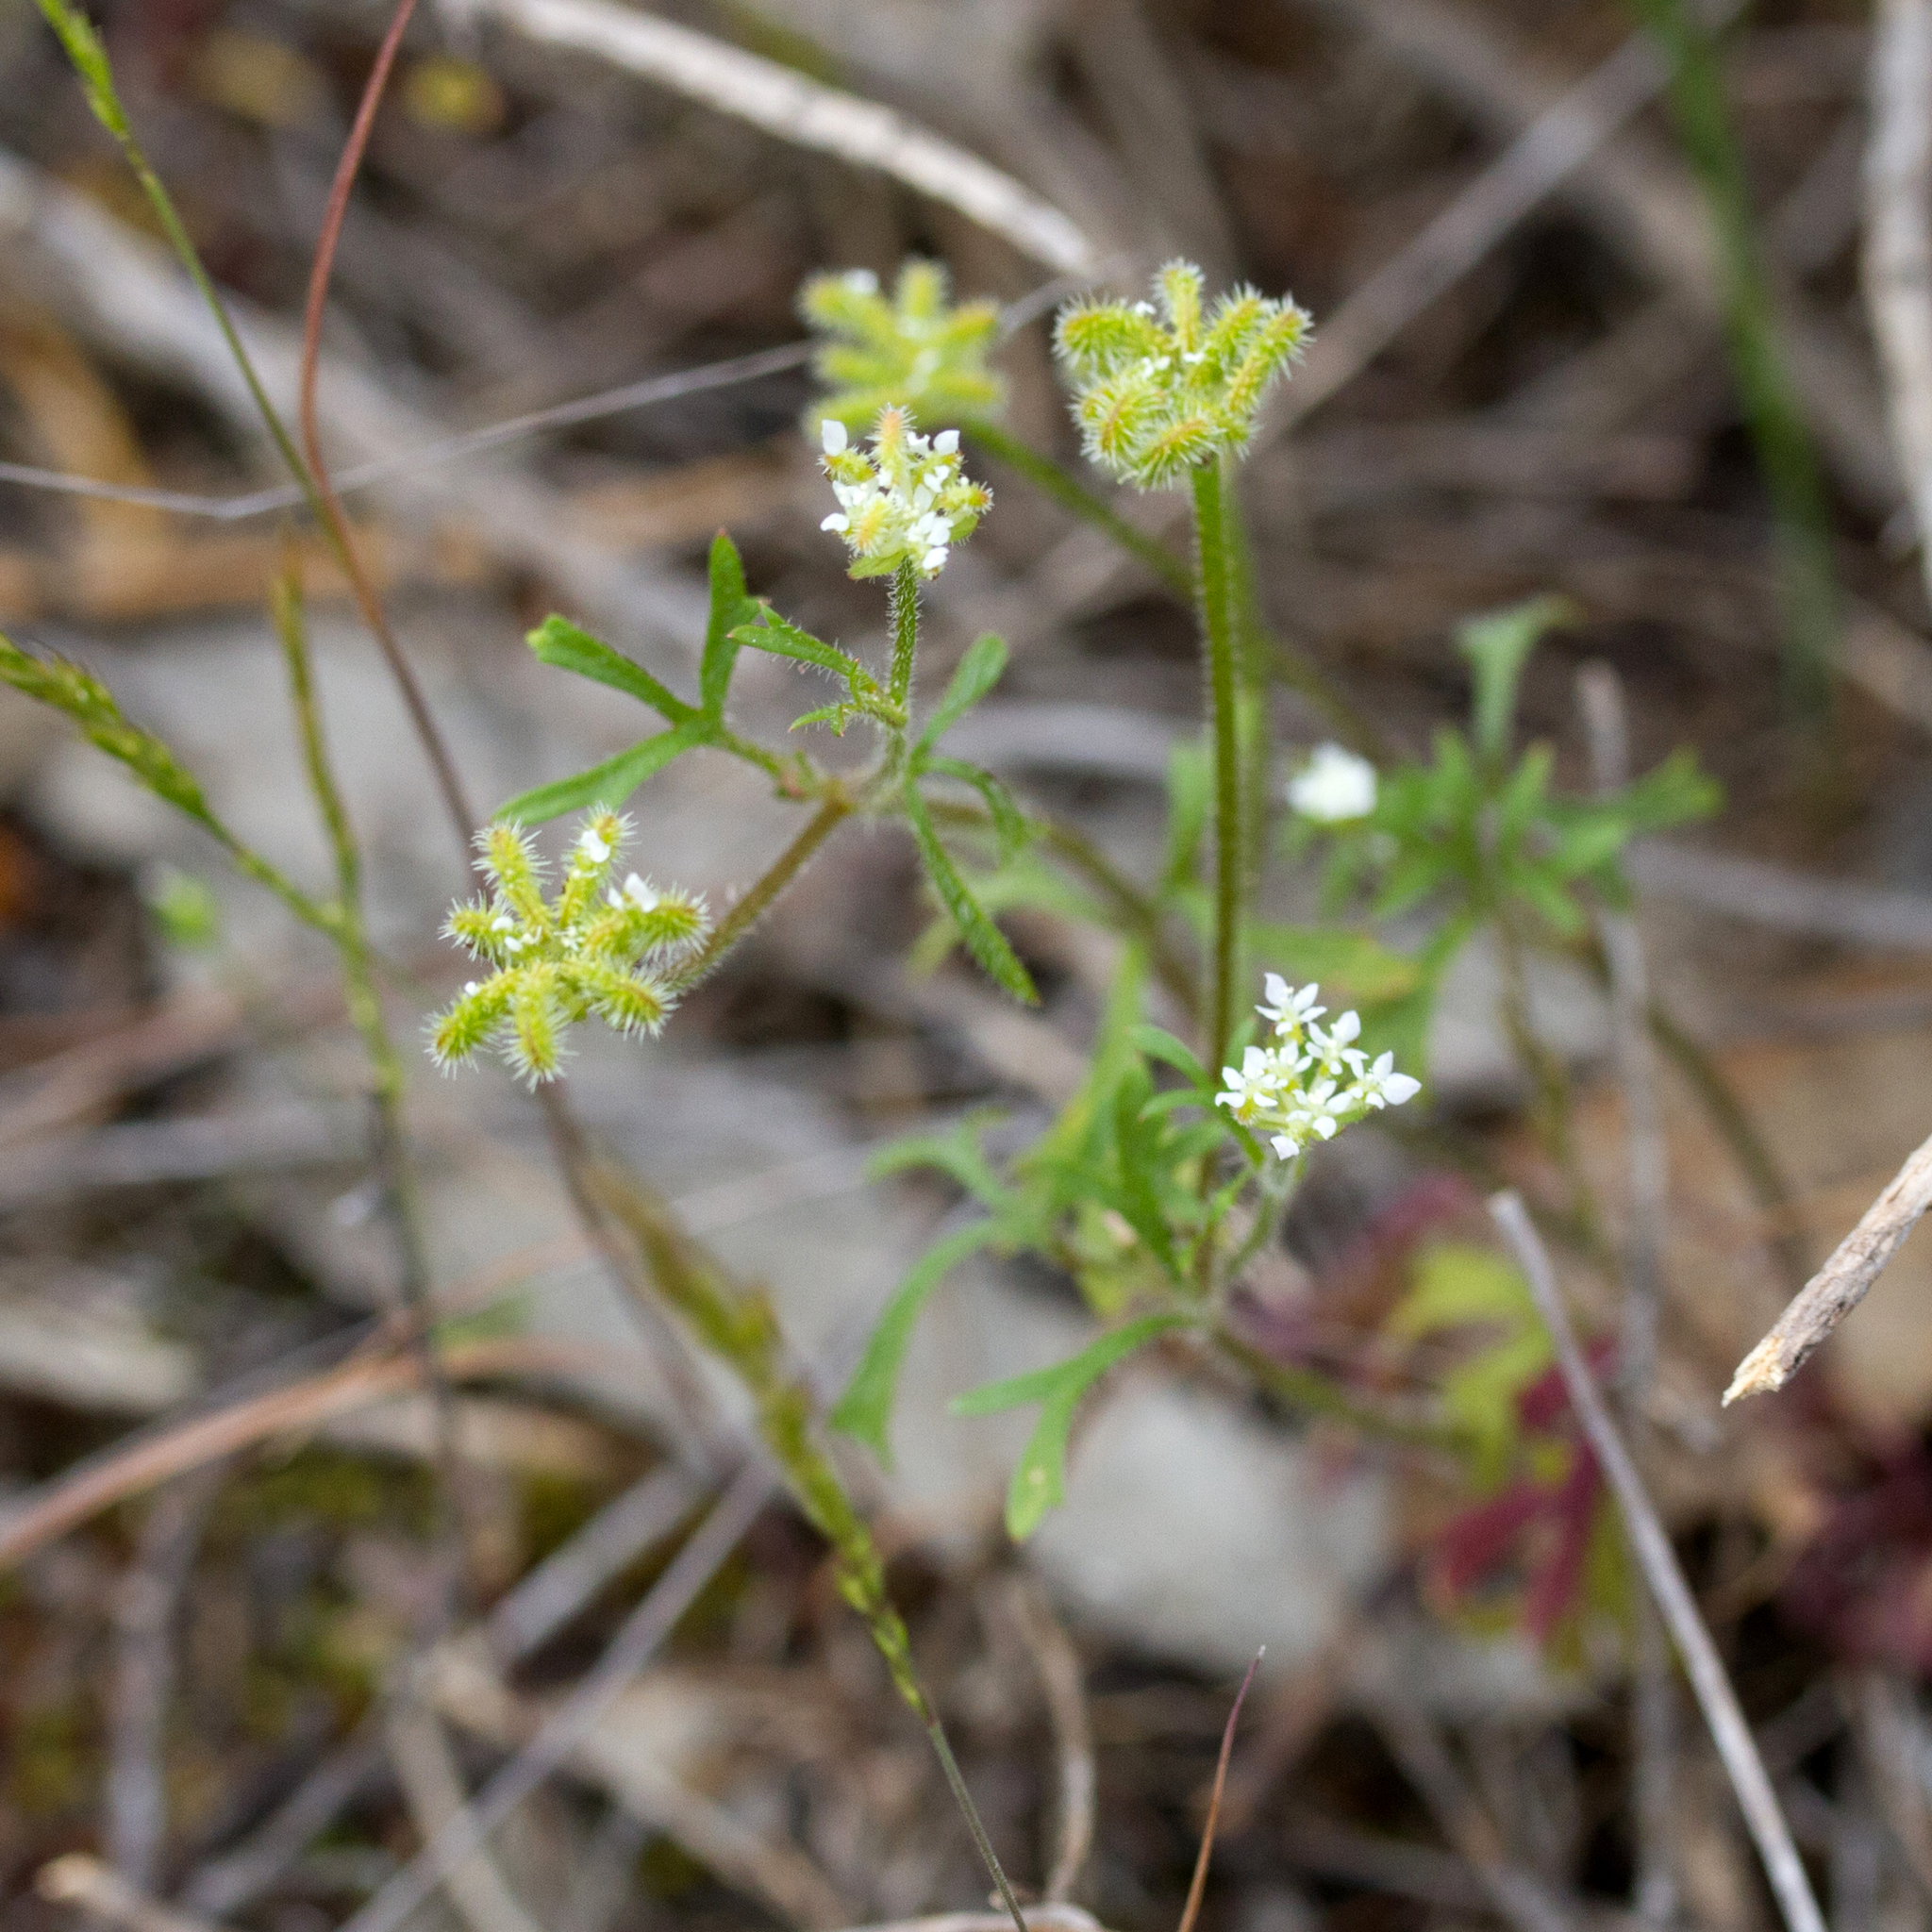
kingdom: Plantae
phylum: Tracheophyta
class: Magnoliopsida
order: Apiales
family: Araliaceae
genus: Trachymene
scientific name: Trachymene pilosa
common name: Dwarf trachymene
